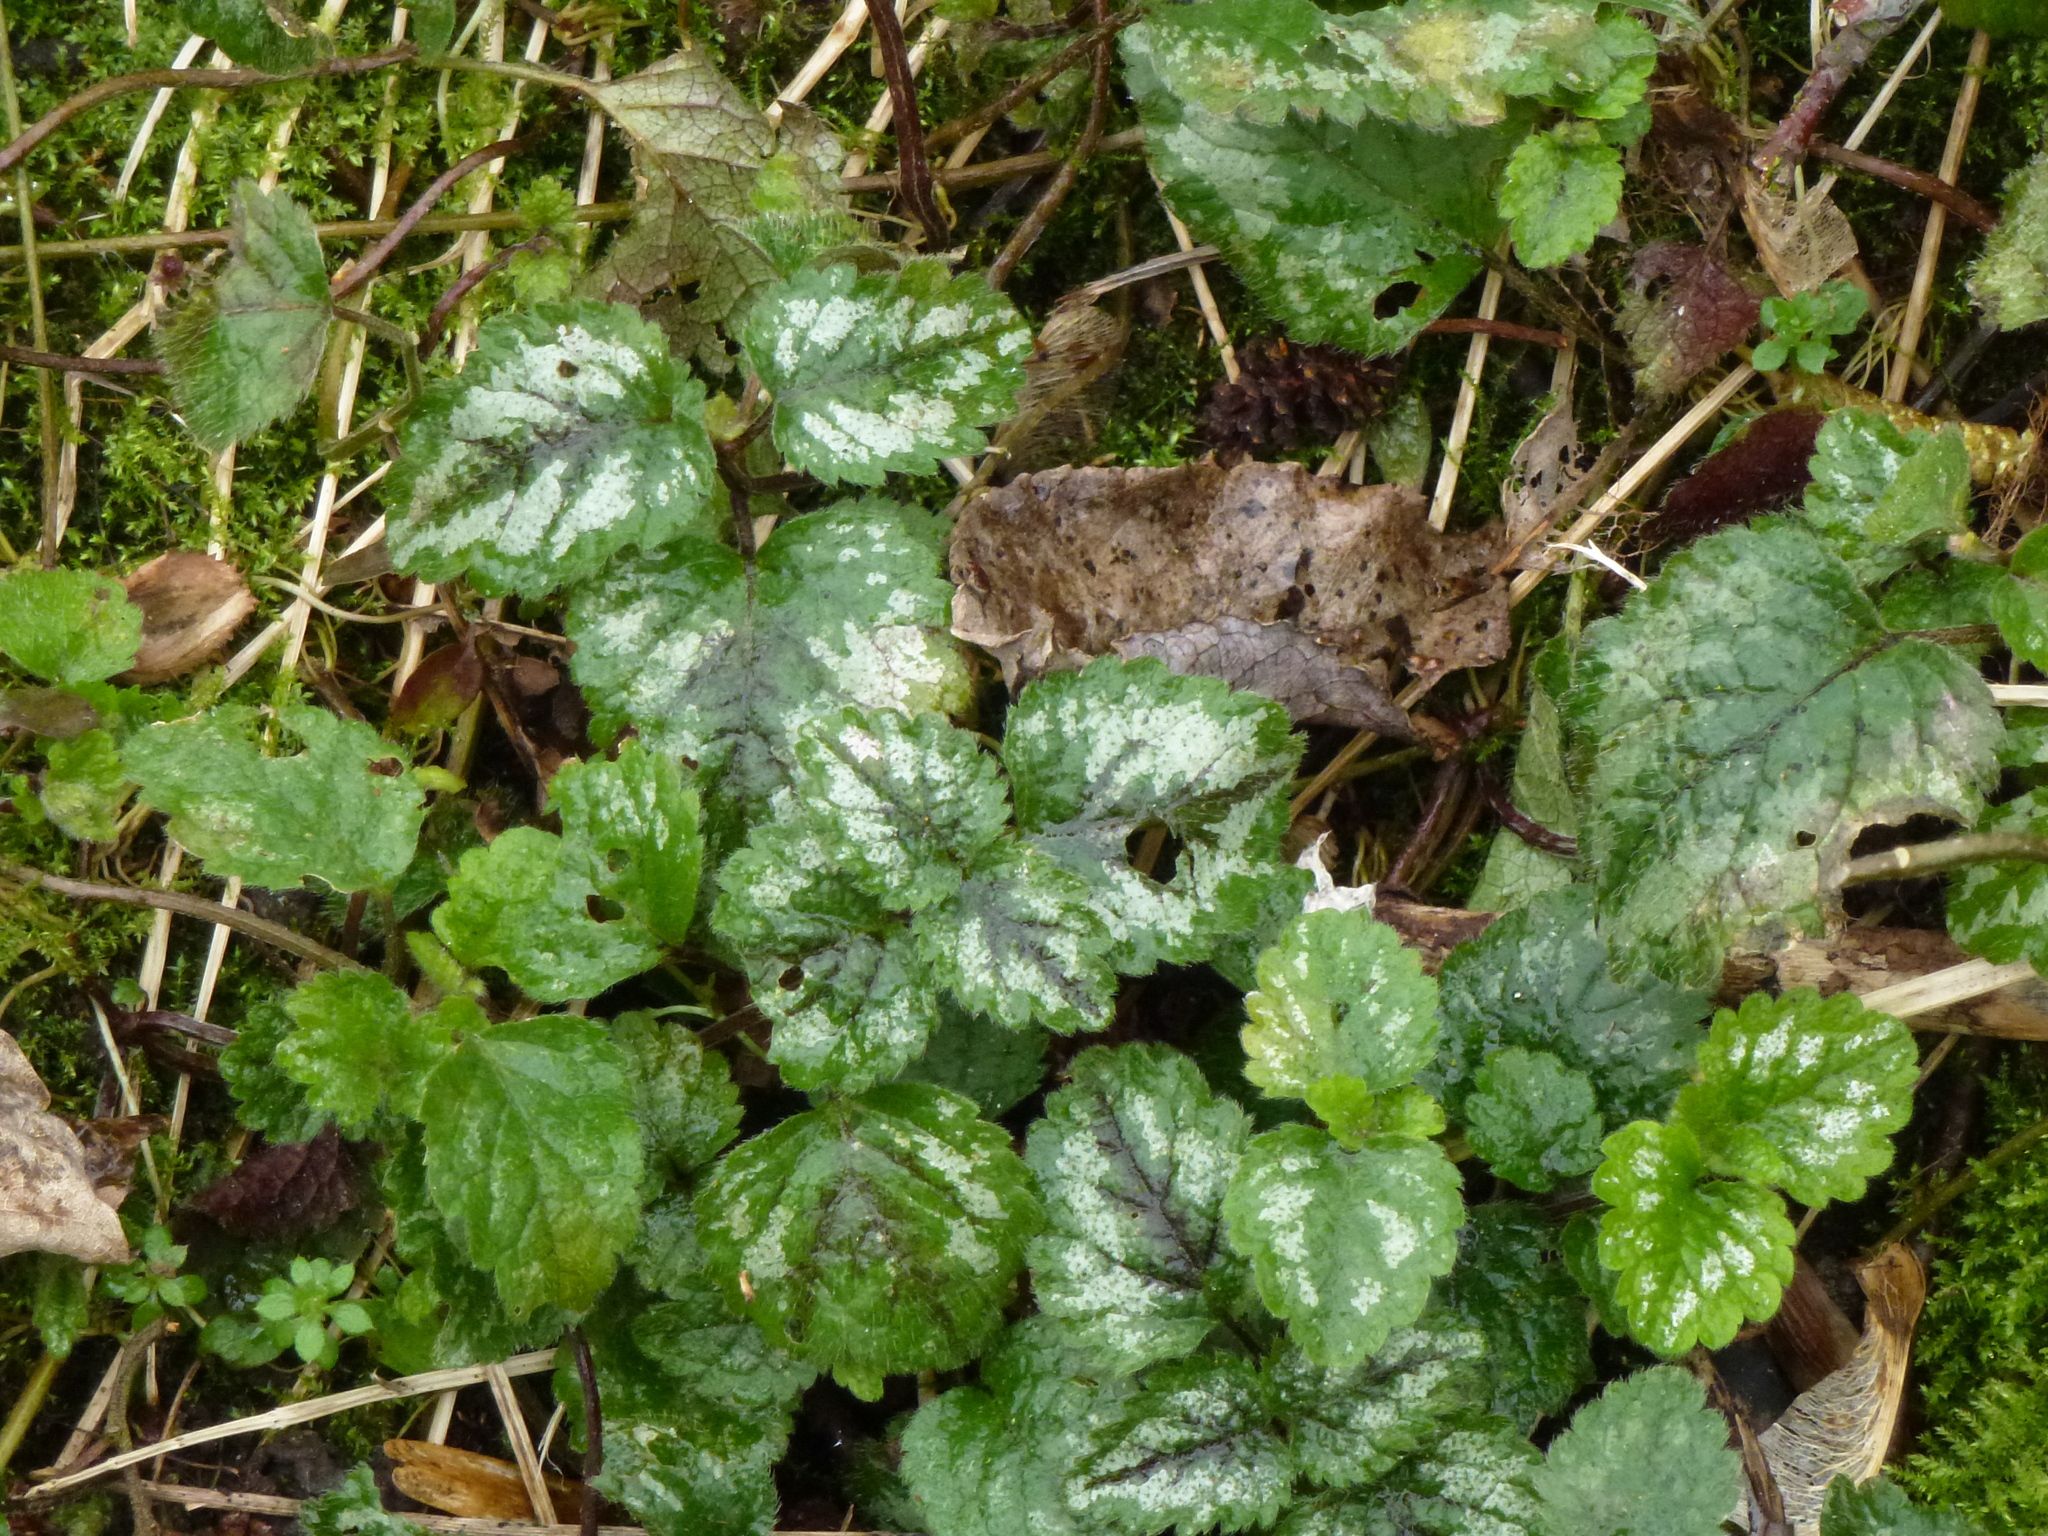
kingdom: Plantae
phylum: Tracheophyta
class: Magnoliopsida
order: Lamiales
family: Lamiaceae
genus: Lamium
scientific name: Lamium galeobdolon
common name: Yellow archangel
